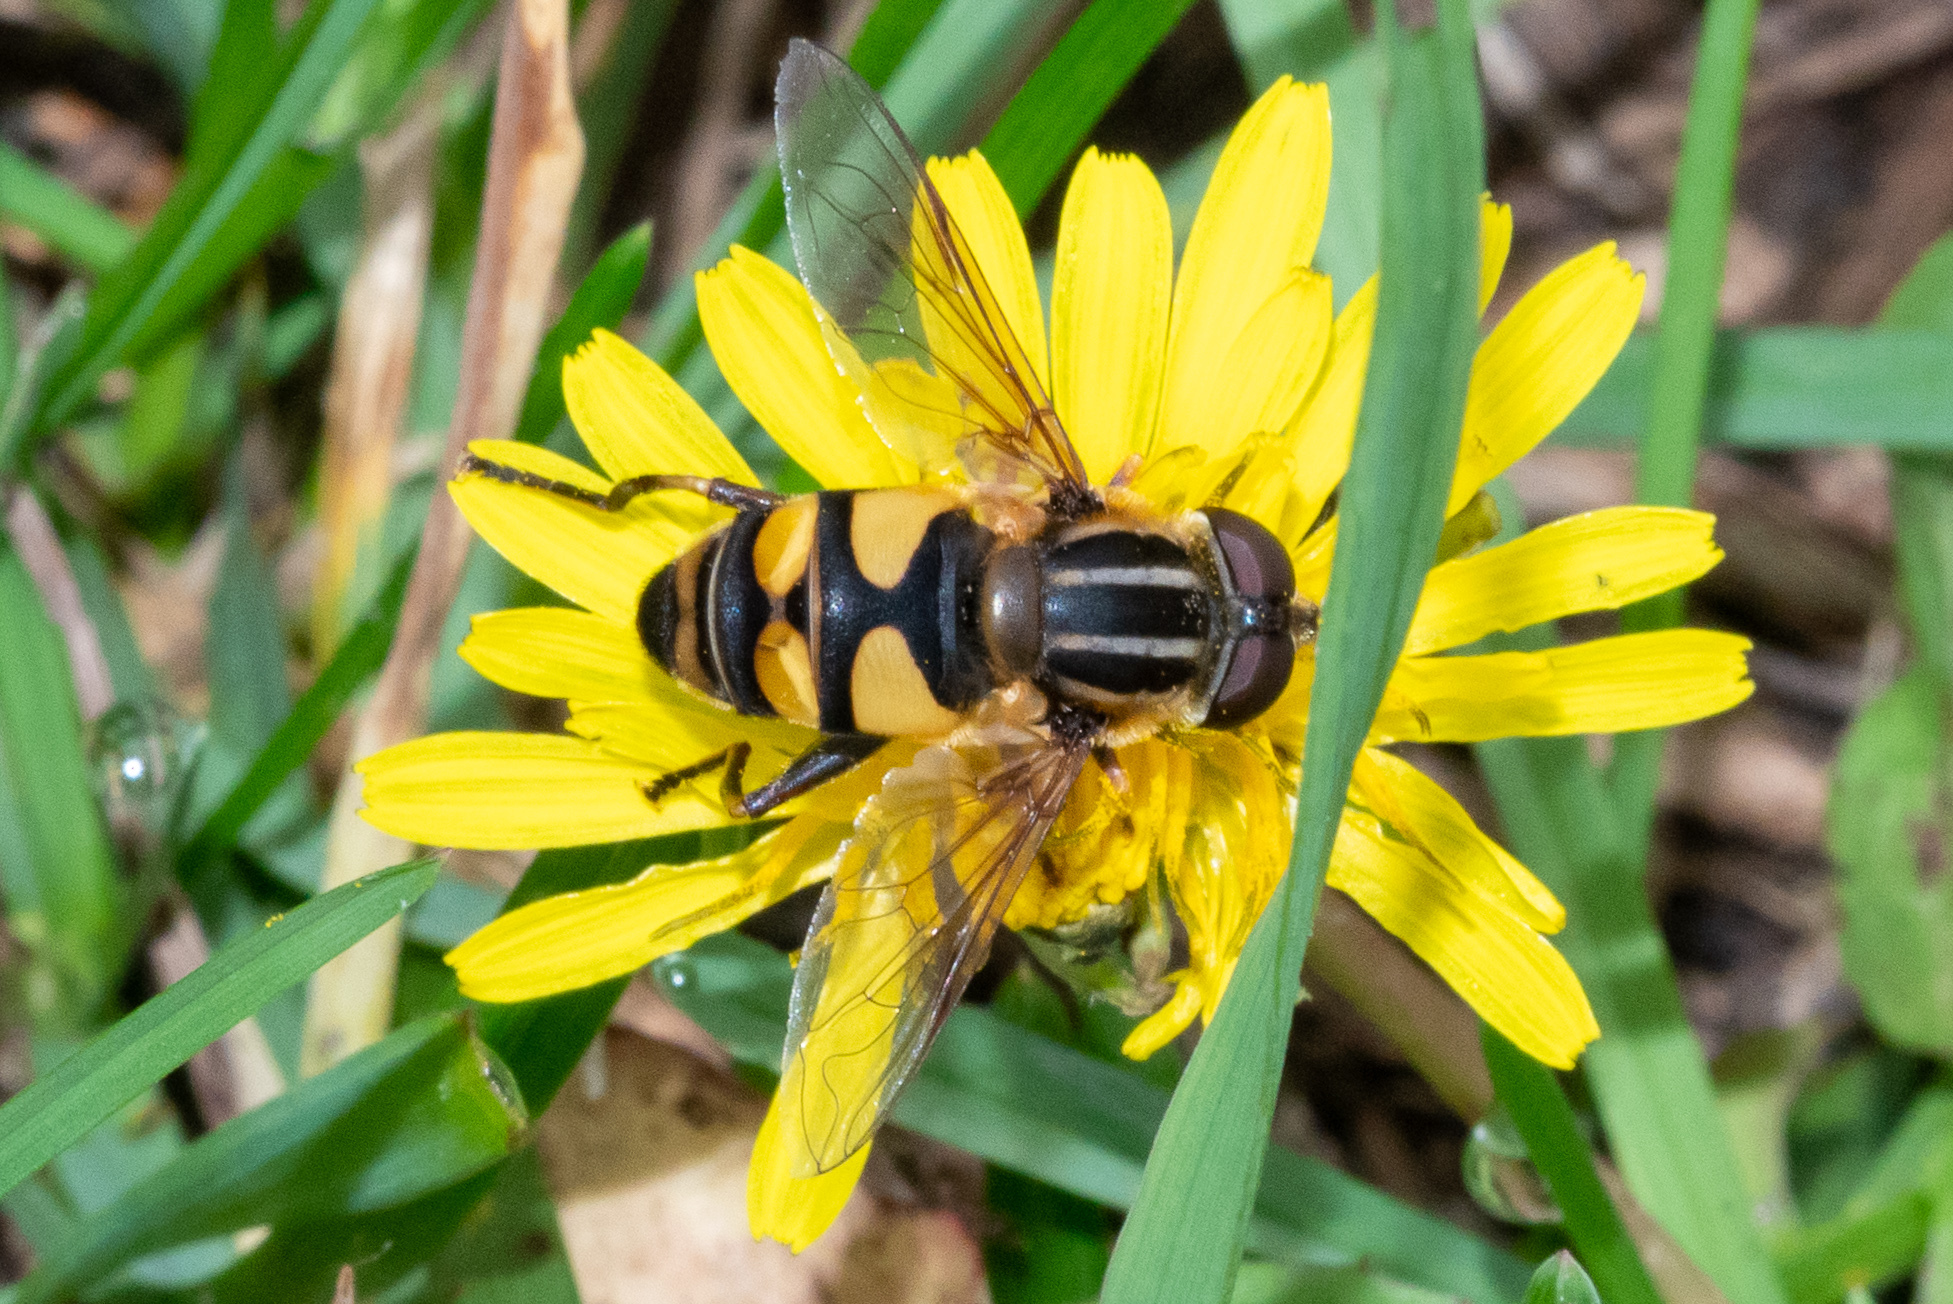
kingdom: Animalia
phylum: Arthropoda
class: Insecta
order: Diptera
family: Syrphidae
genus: Helophilus
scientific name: Helophilus fasciatus
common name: Narrow-headed marsh fly
